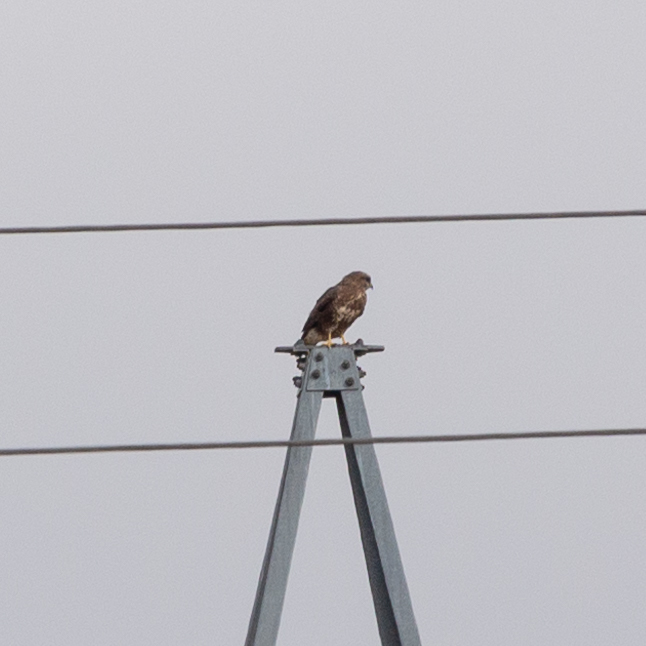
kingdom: Animalia
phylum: Chordata
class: Aves
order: Accipitriformes
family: Accipitridae
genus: Buteo
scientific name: Buteo buteo
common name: Common buzzard
